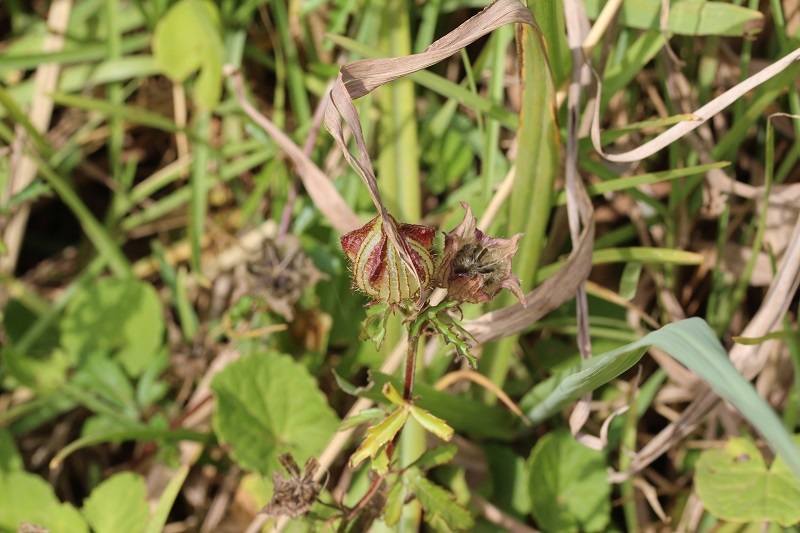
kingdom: Plantae
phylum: Tracheophyta
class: Magnoliopsida
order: Malvales
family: Malvaceae
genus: Hibiscus
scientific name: Hibiscus trionum
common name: Bladder ketmia
